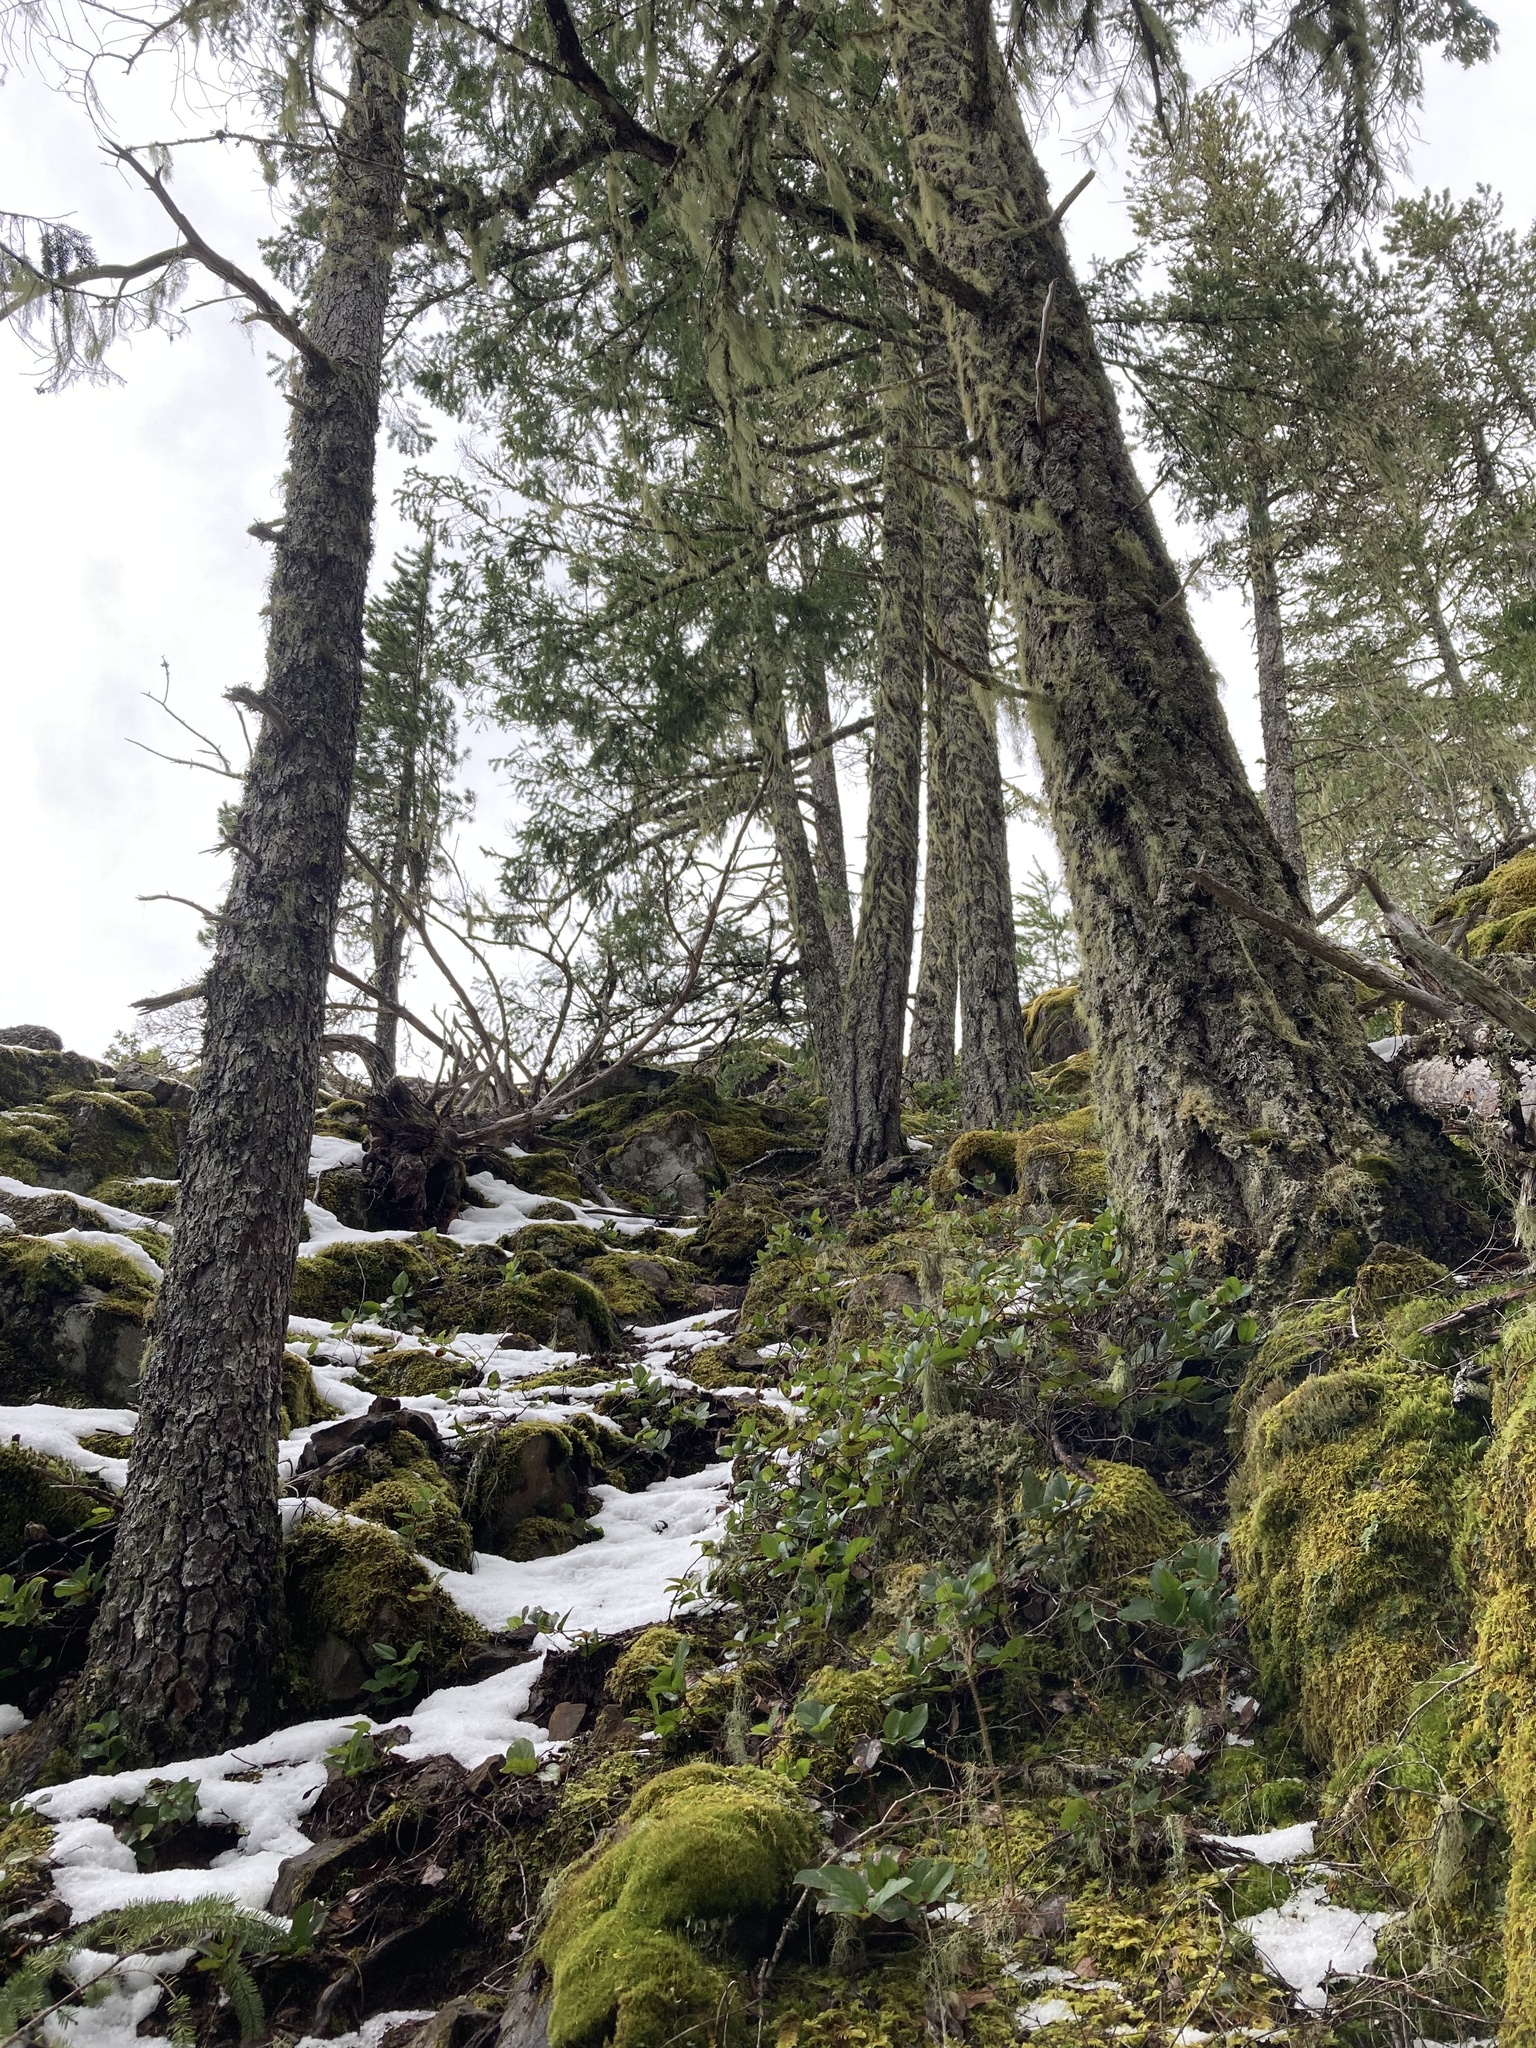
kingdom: Plantae
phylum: Tracheophyta
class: Pinopsida
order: Pinales
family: Pinaceae
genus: Pseudotsuga
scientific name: Pseudotsuga menziesii
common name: Douglas fir
